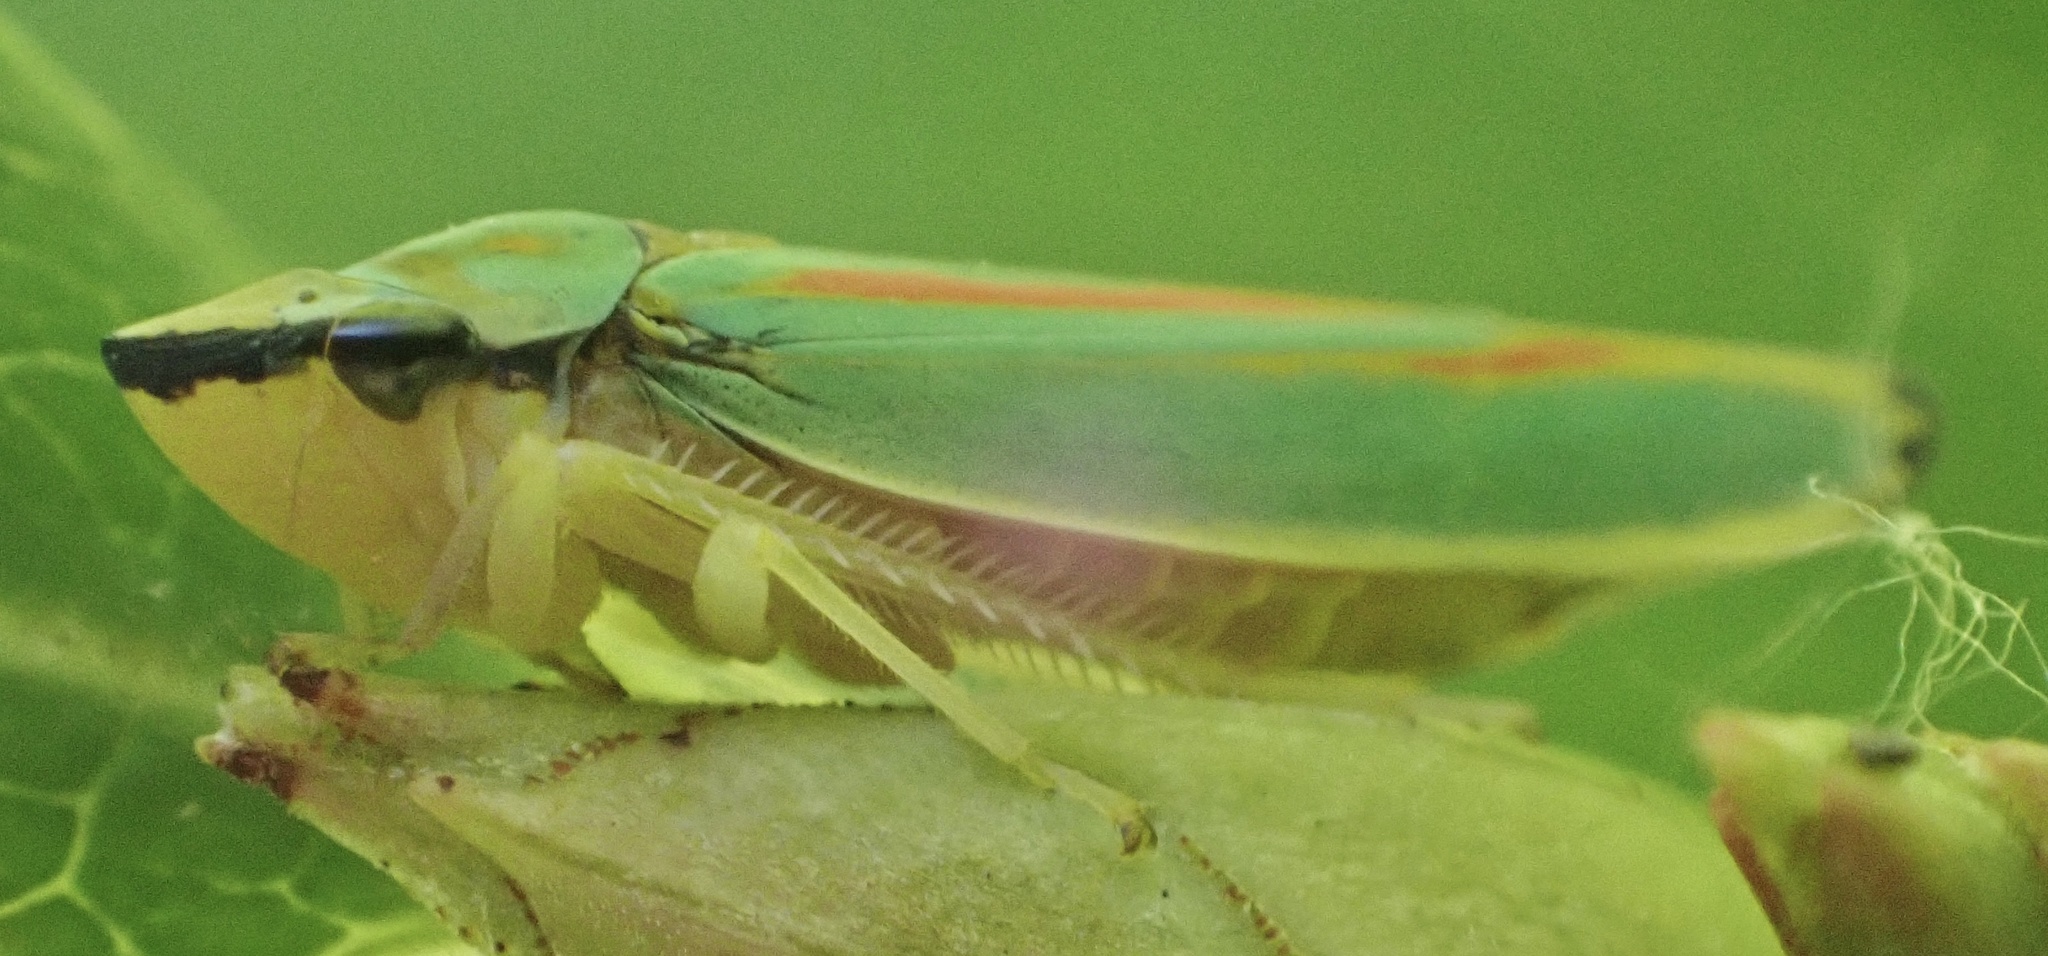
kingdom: Animalia
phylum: Arthropoda
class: Insecta
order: Hemiptera
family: Cicadellidae
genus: Graphocephala
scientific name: Graphocephala fennahi
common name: Rhododendron leafhopper
